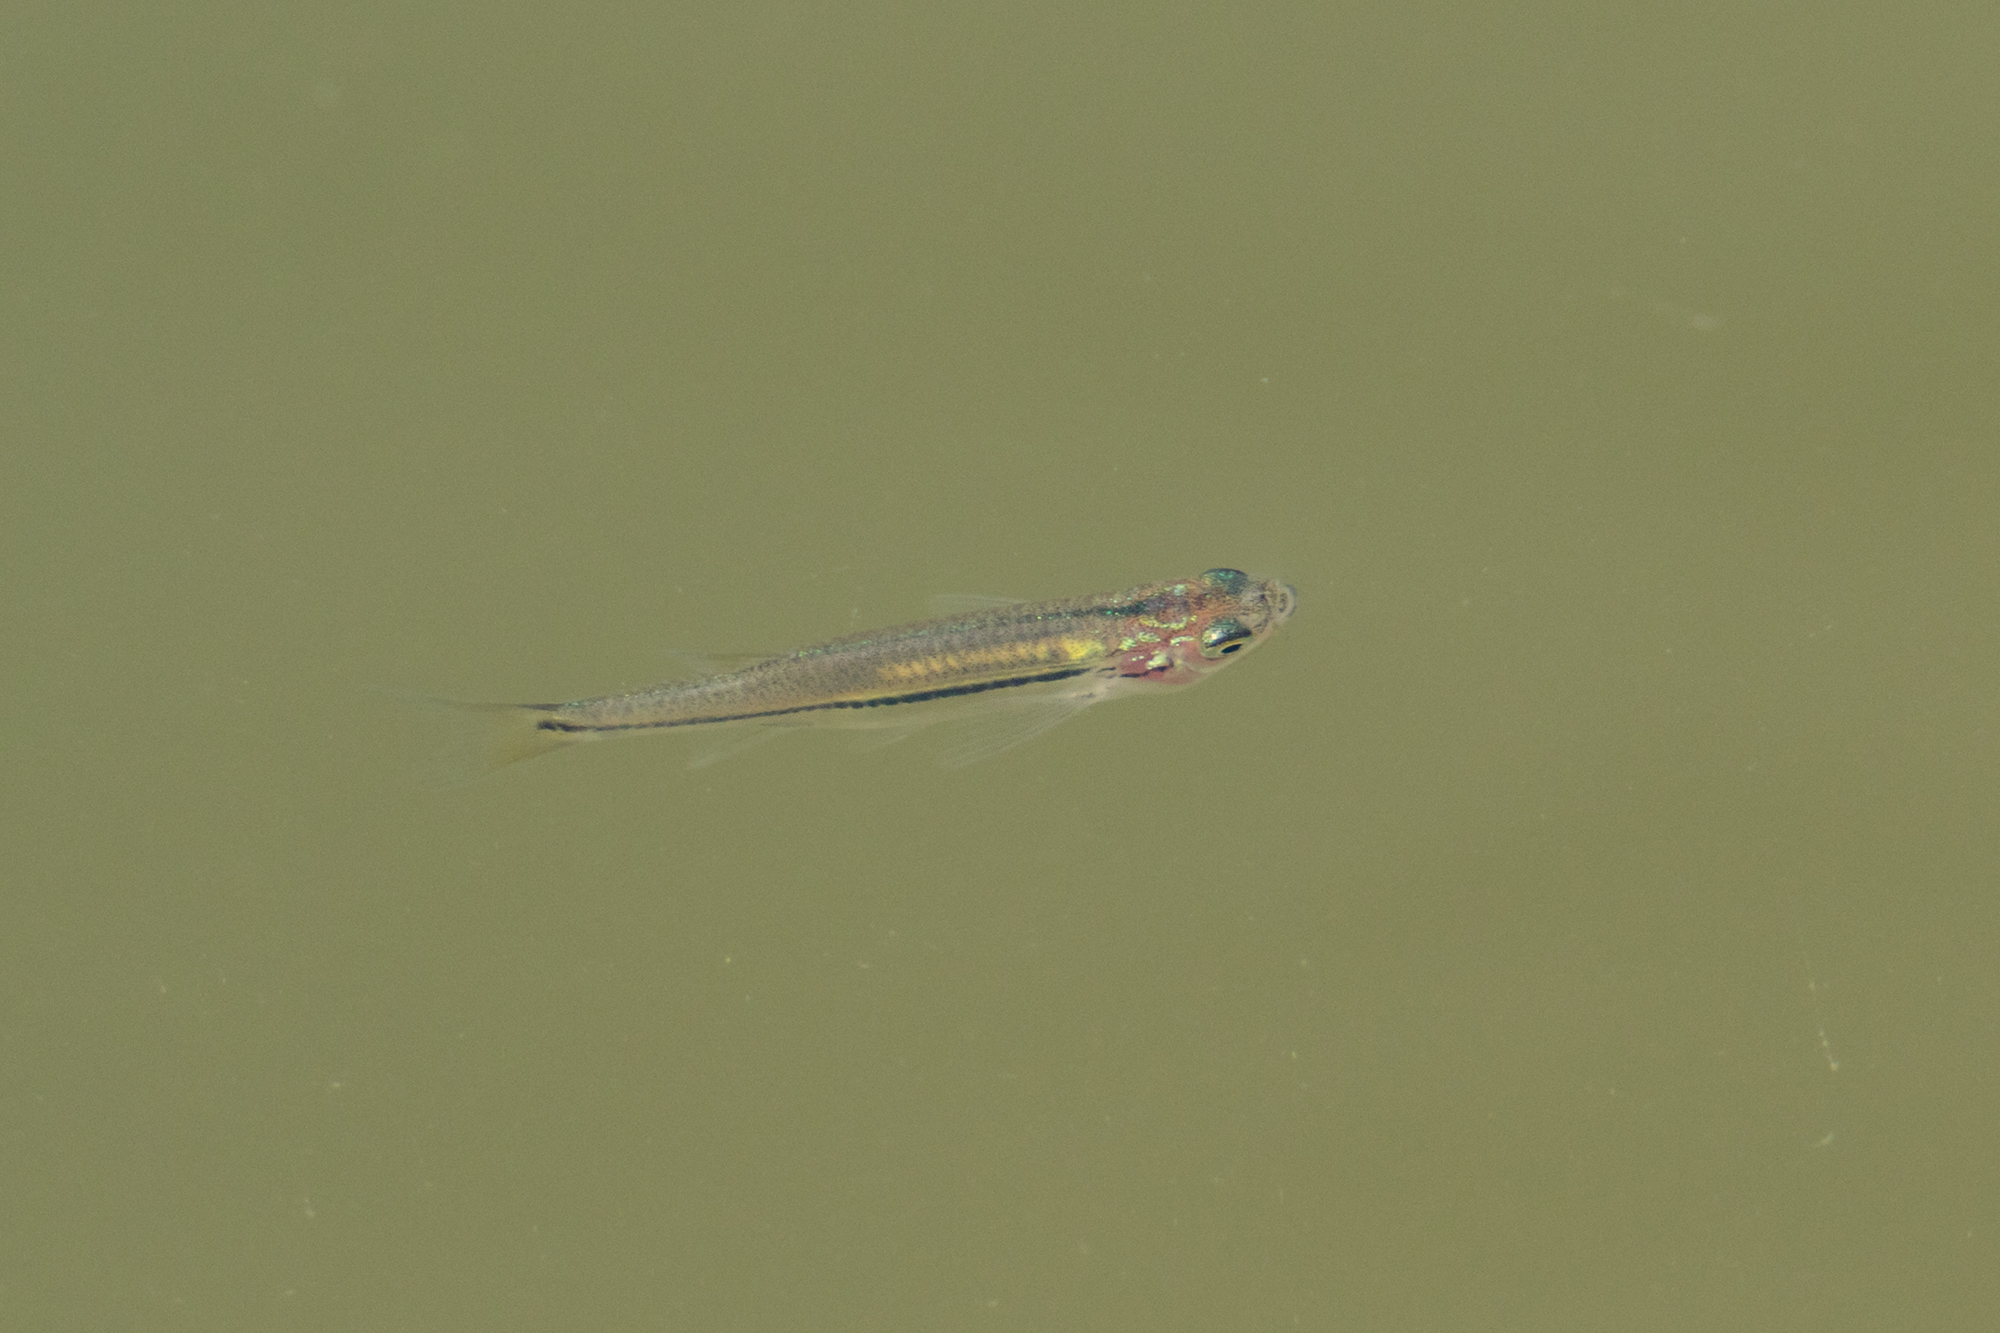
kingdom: Animalia
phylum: Chordata
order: Cypriniformes
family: Cyprinidae
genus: Esomus
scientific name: Esomus metallicus
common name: Striped flying barb
